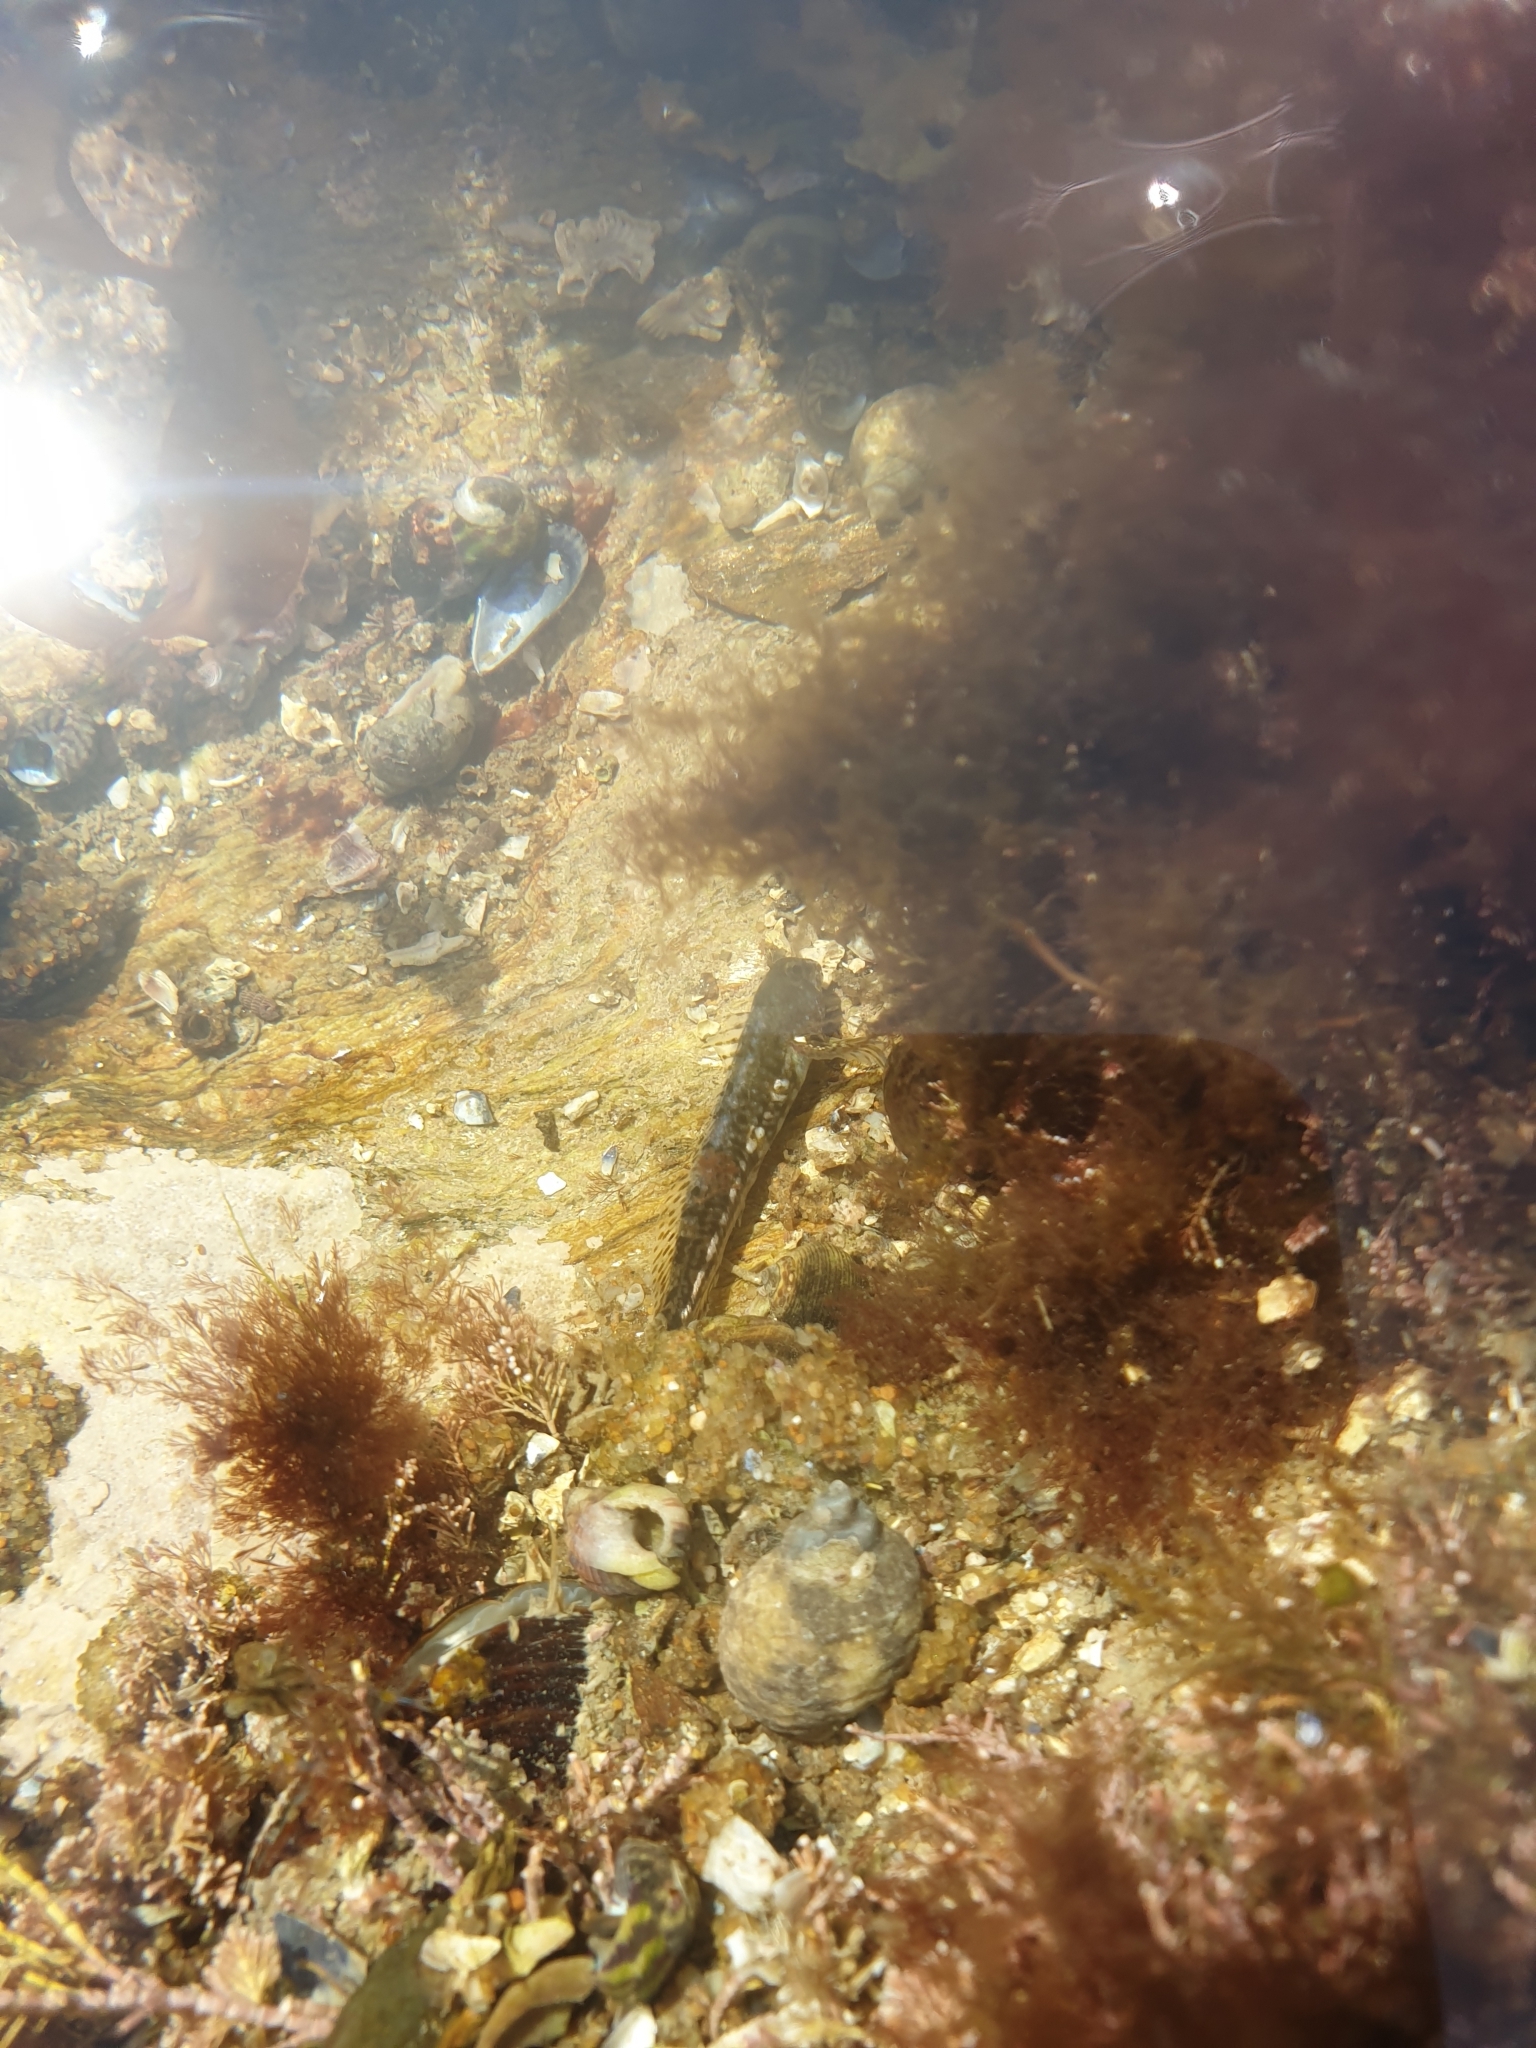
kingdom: Animalia
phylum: Chordata
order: Perciformes
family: Blenniidae
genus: Coryphoblennius
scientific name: Coryphoblennius galerita
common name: Montagu's blenny
